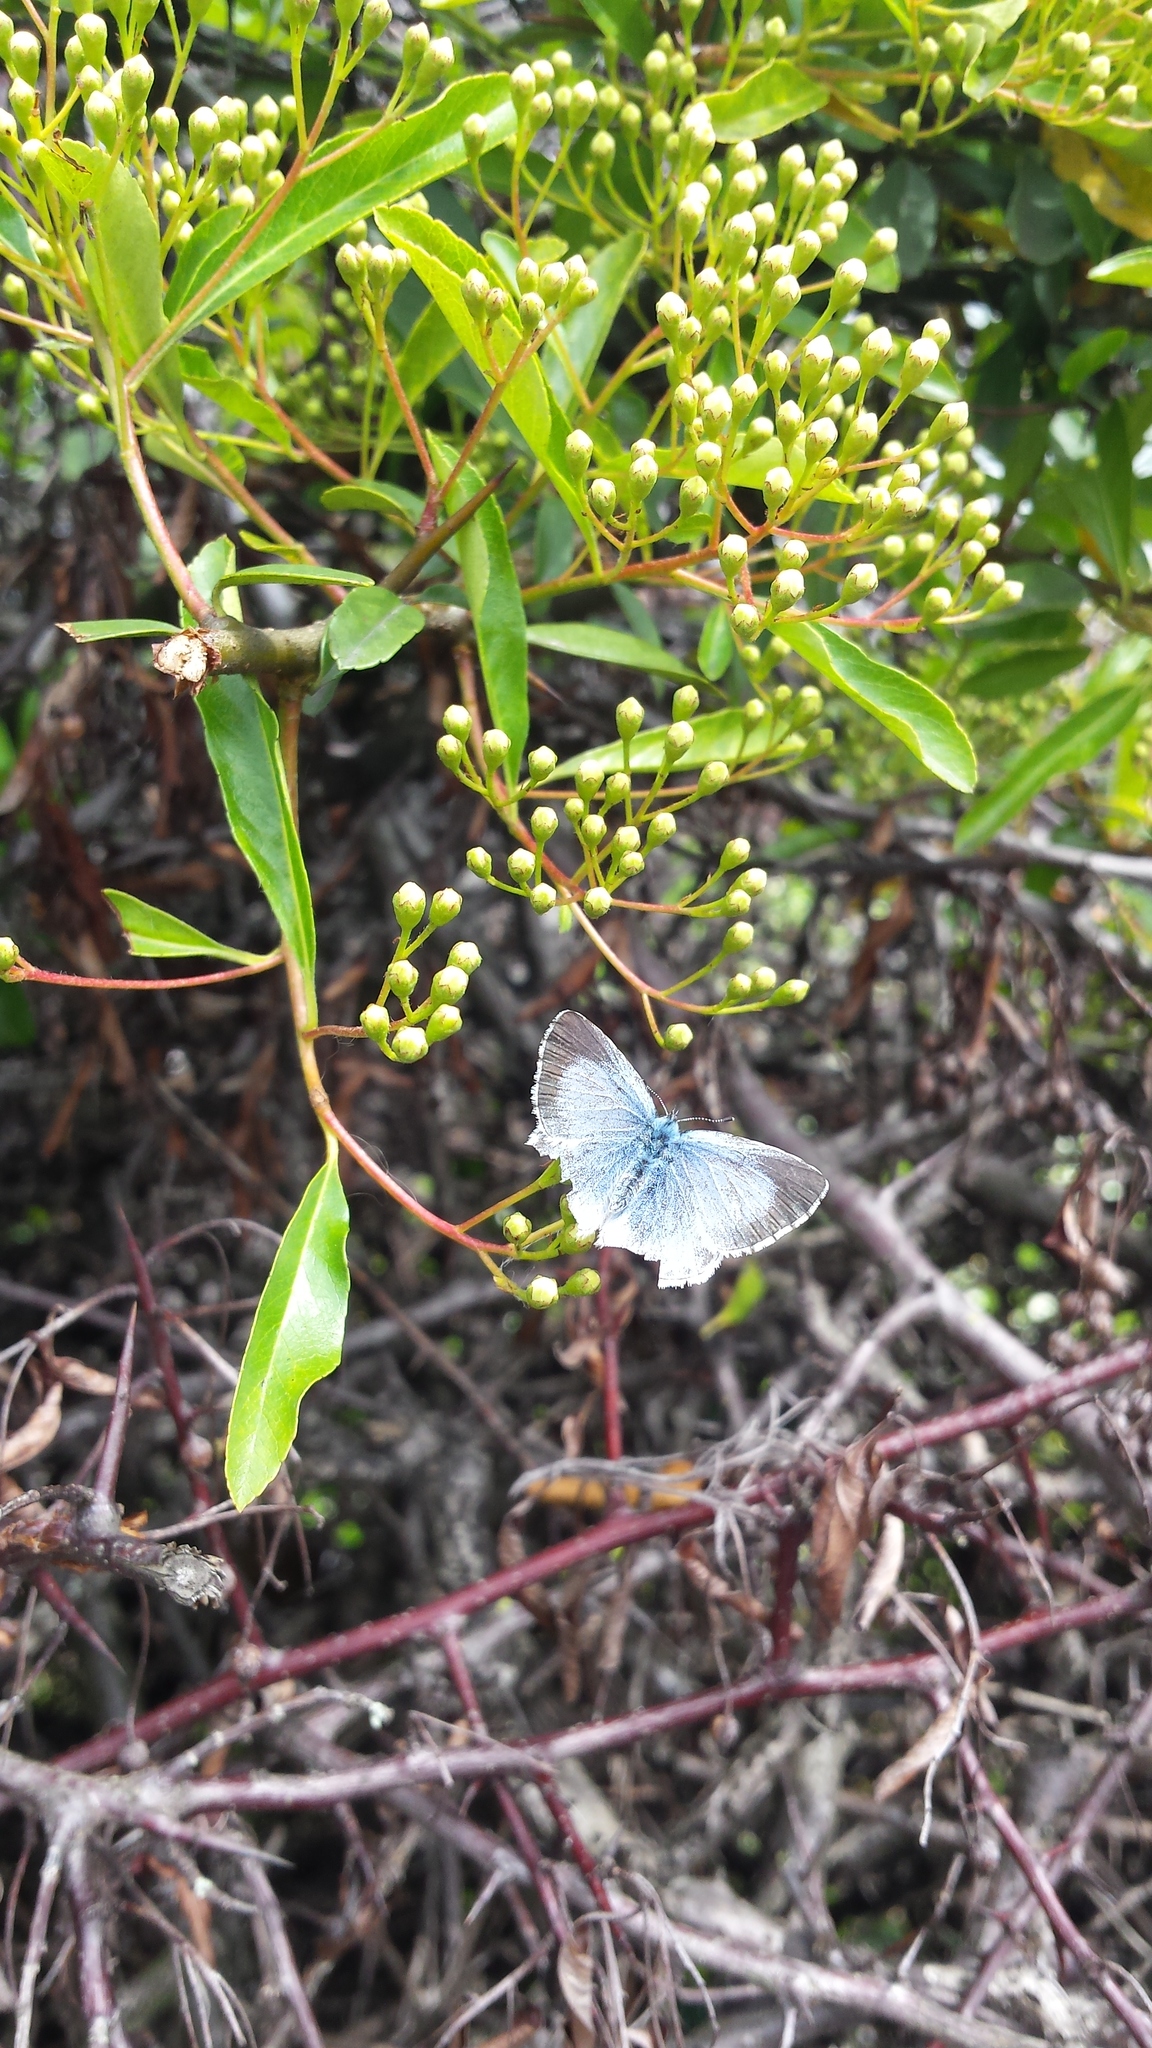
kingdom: Animalia
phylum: Arthropoda
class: Insecta
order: Lepidoptera
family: Lycaenidae
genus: Celastrina
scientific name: Celastrina argiolus
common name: Holly blue
